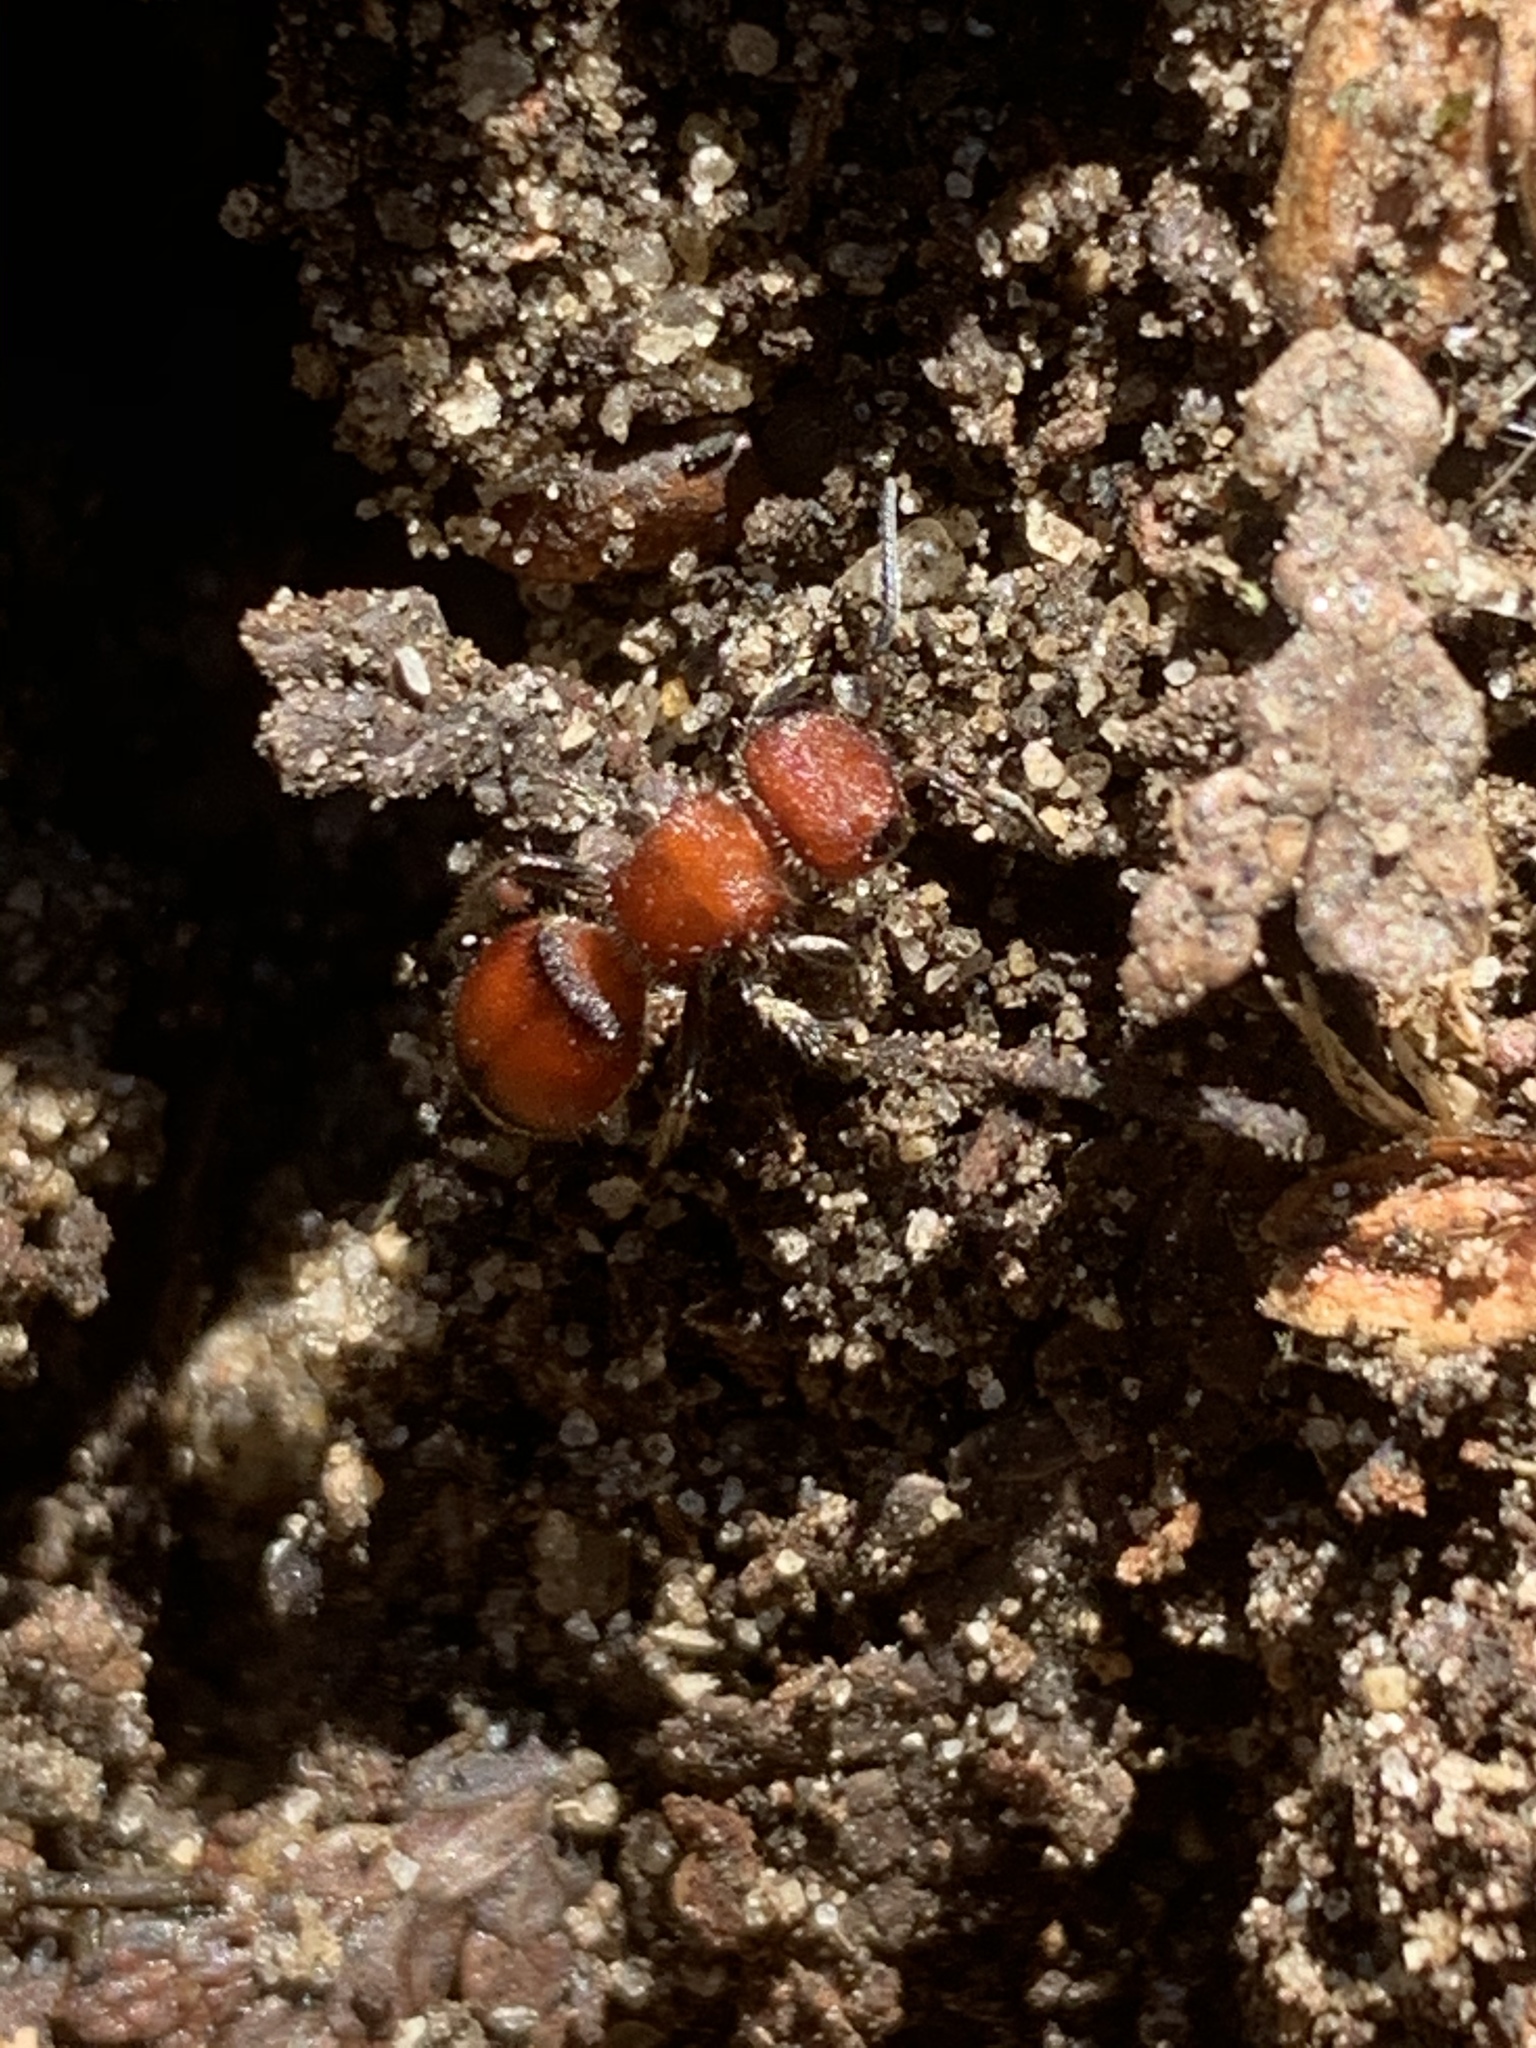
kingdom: Animalia
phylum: Arthropoda
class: Insecta
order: Hymenoptera
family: Mutillidae
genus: Pseudomethoca
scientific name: Pseudomethoca
